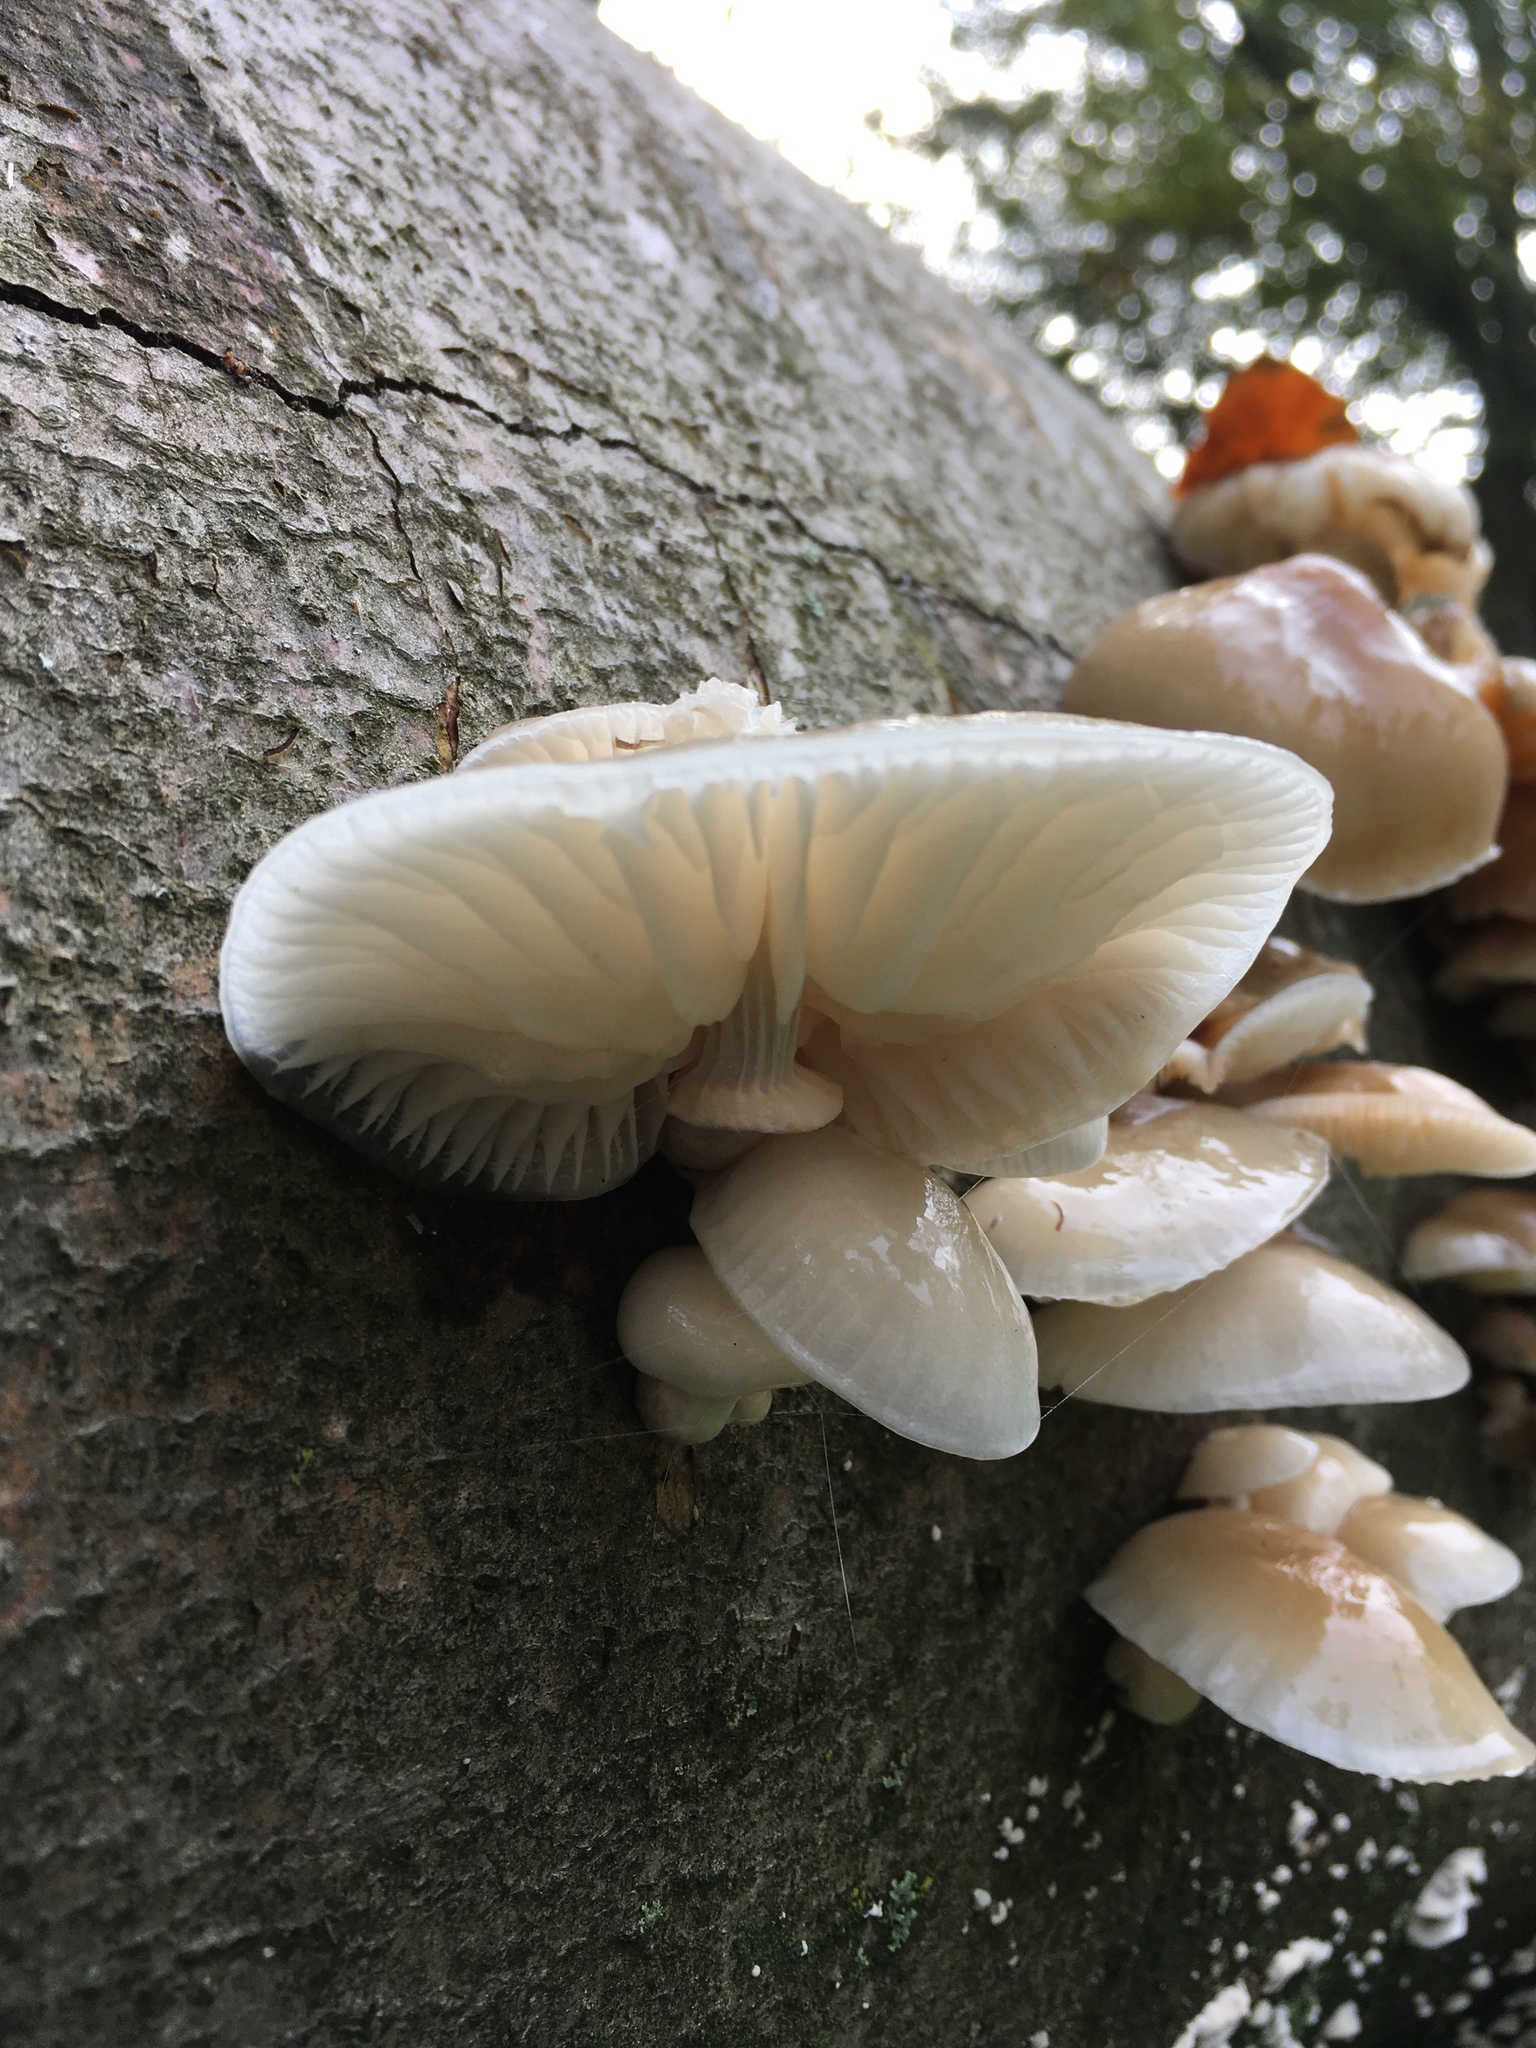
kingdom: Fungi
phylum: Basidiomycota
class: Agaricomycetes
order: Agaricales
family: Physalacriaceae
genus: Mucidula
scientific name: Mucidula mucida
